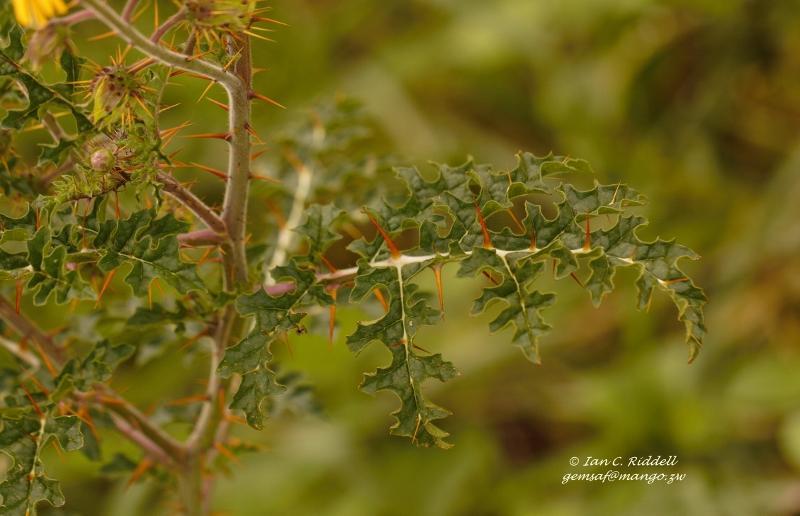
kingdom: Plantae
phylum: Tracheophyta
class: Magnoliopsida
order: Solanales
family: Solanaceae
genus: Solanum
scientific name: Solanum sisymbriifolium
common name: Red buffalo-bur
